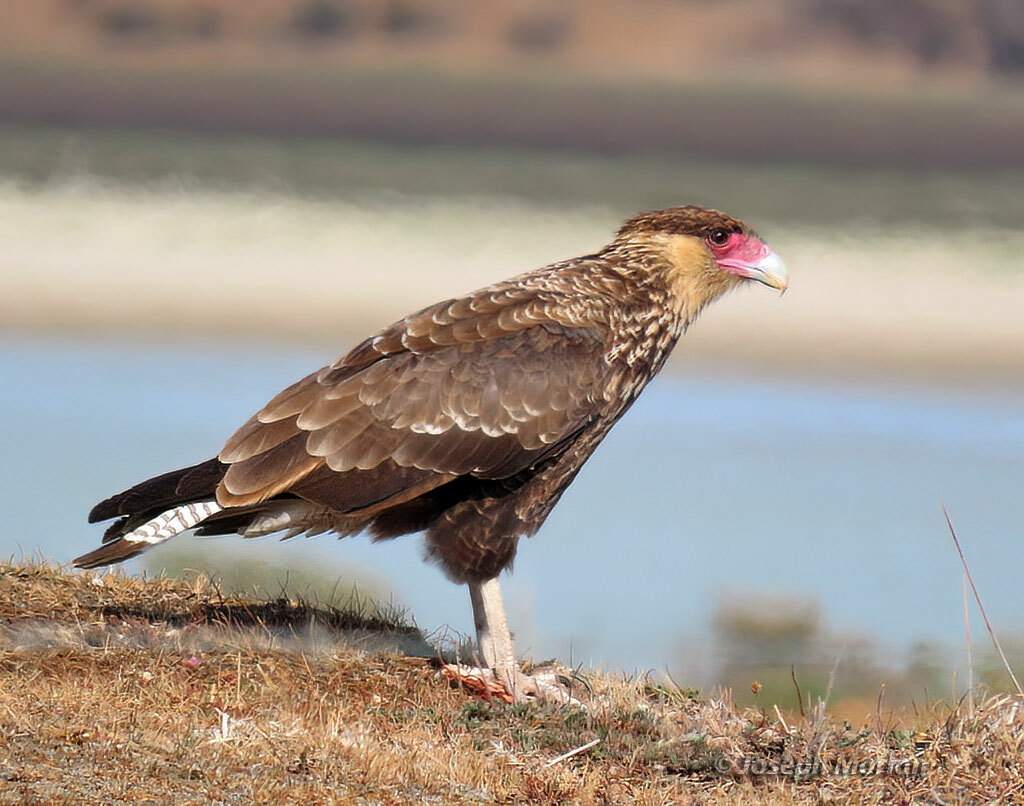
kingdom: Animalia
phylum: Chordata
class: Aves
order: Falconiformes
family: Falconidae
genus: Caracara
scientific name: Caracara plancus
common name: Southern caracara
